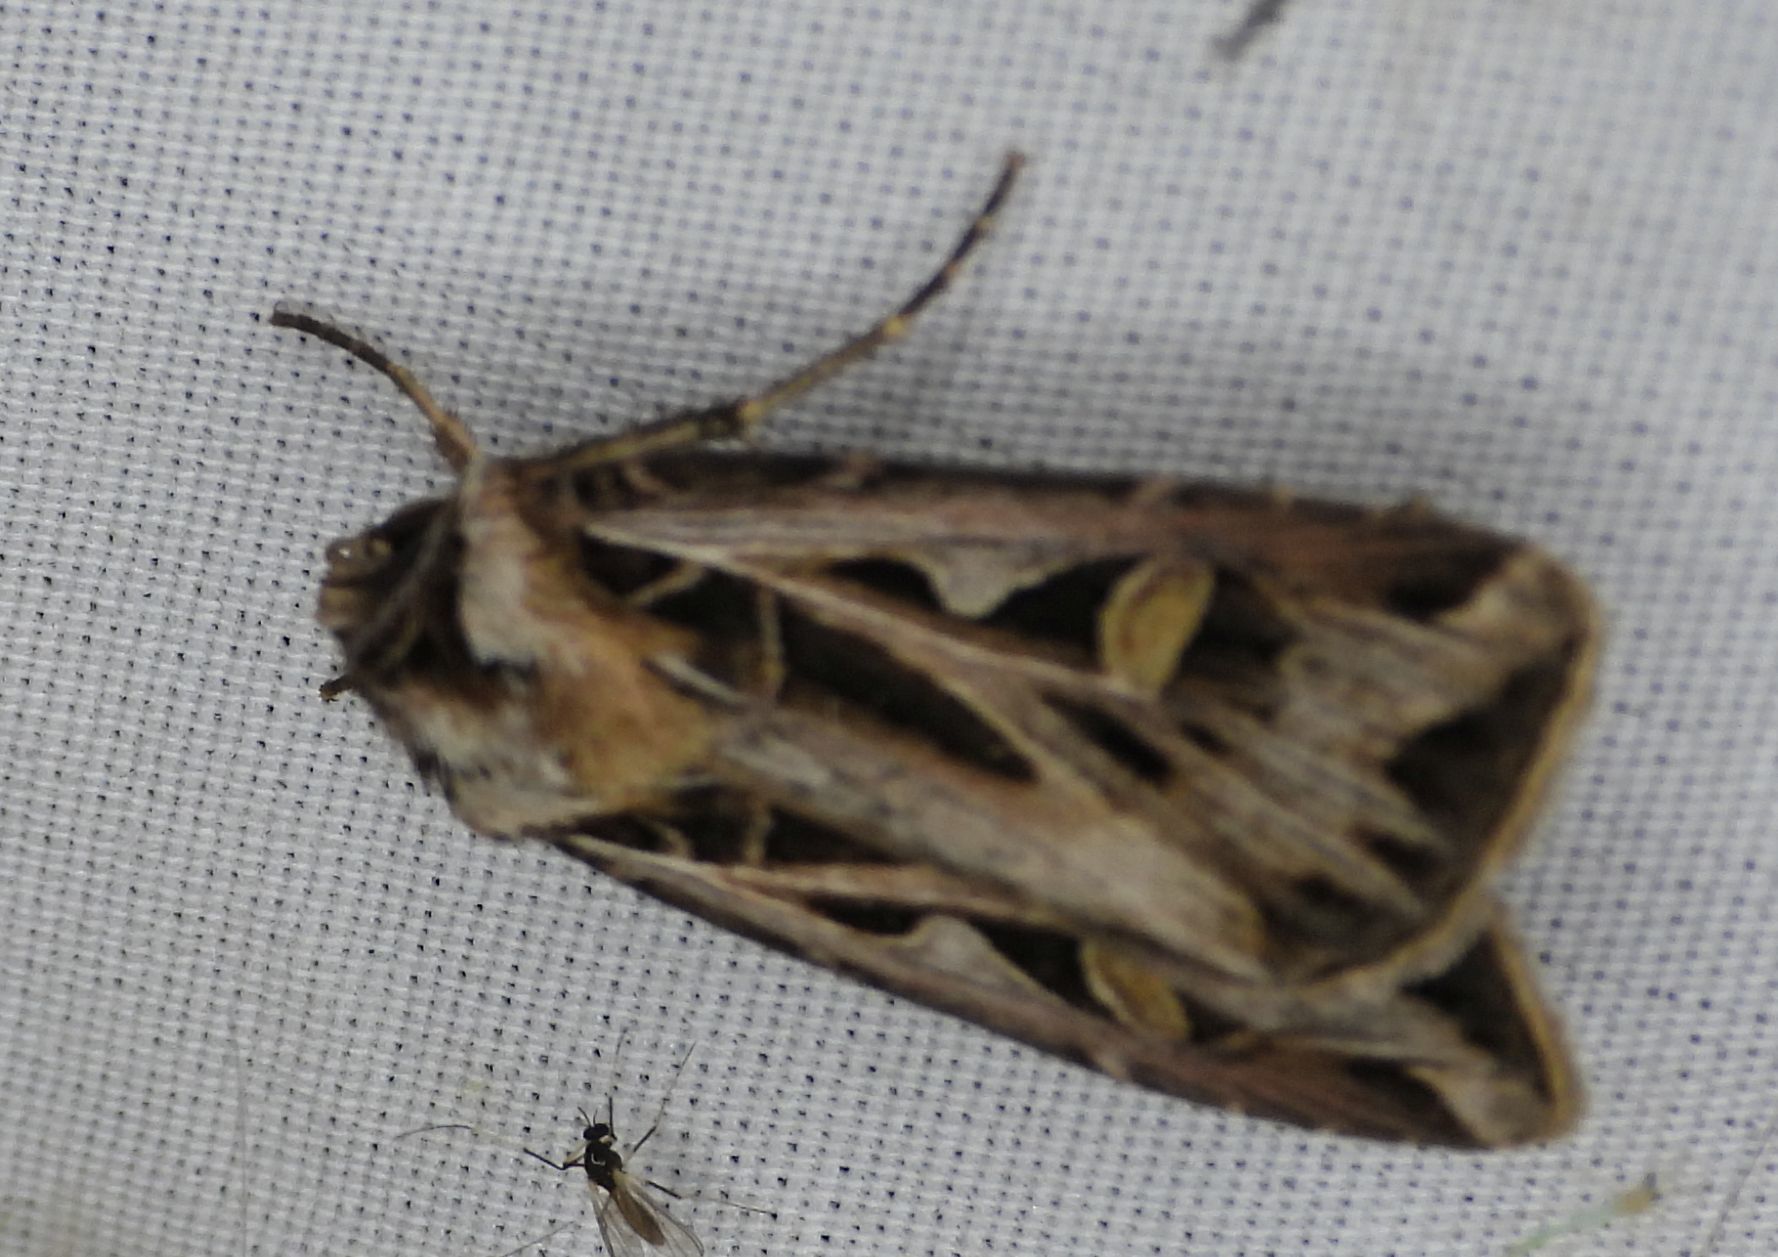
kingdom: Animalia
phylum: Arthropoda
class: Insecta
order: Lepidoptera
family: Noctuidae
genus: Feltia
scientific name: Feltia jaculifera
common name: Dingy cutworm moth
